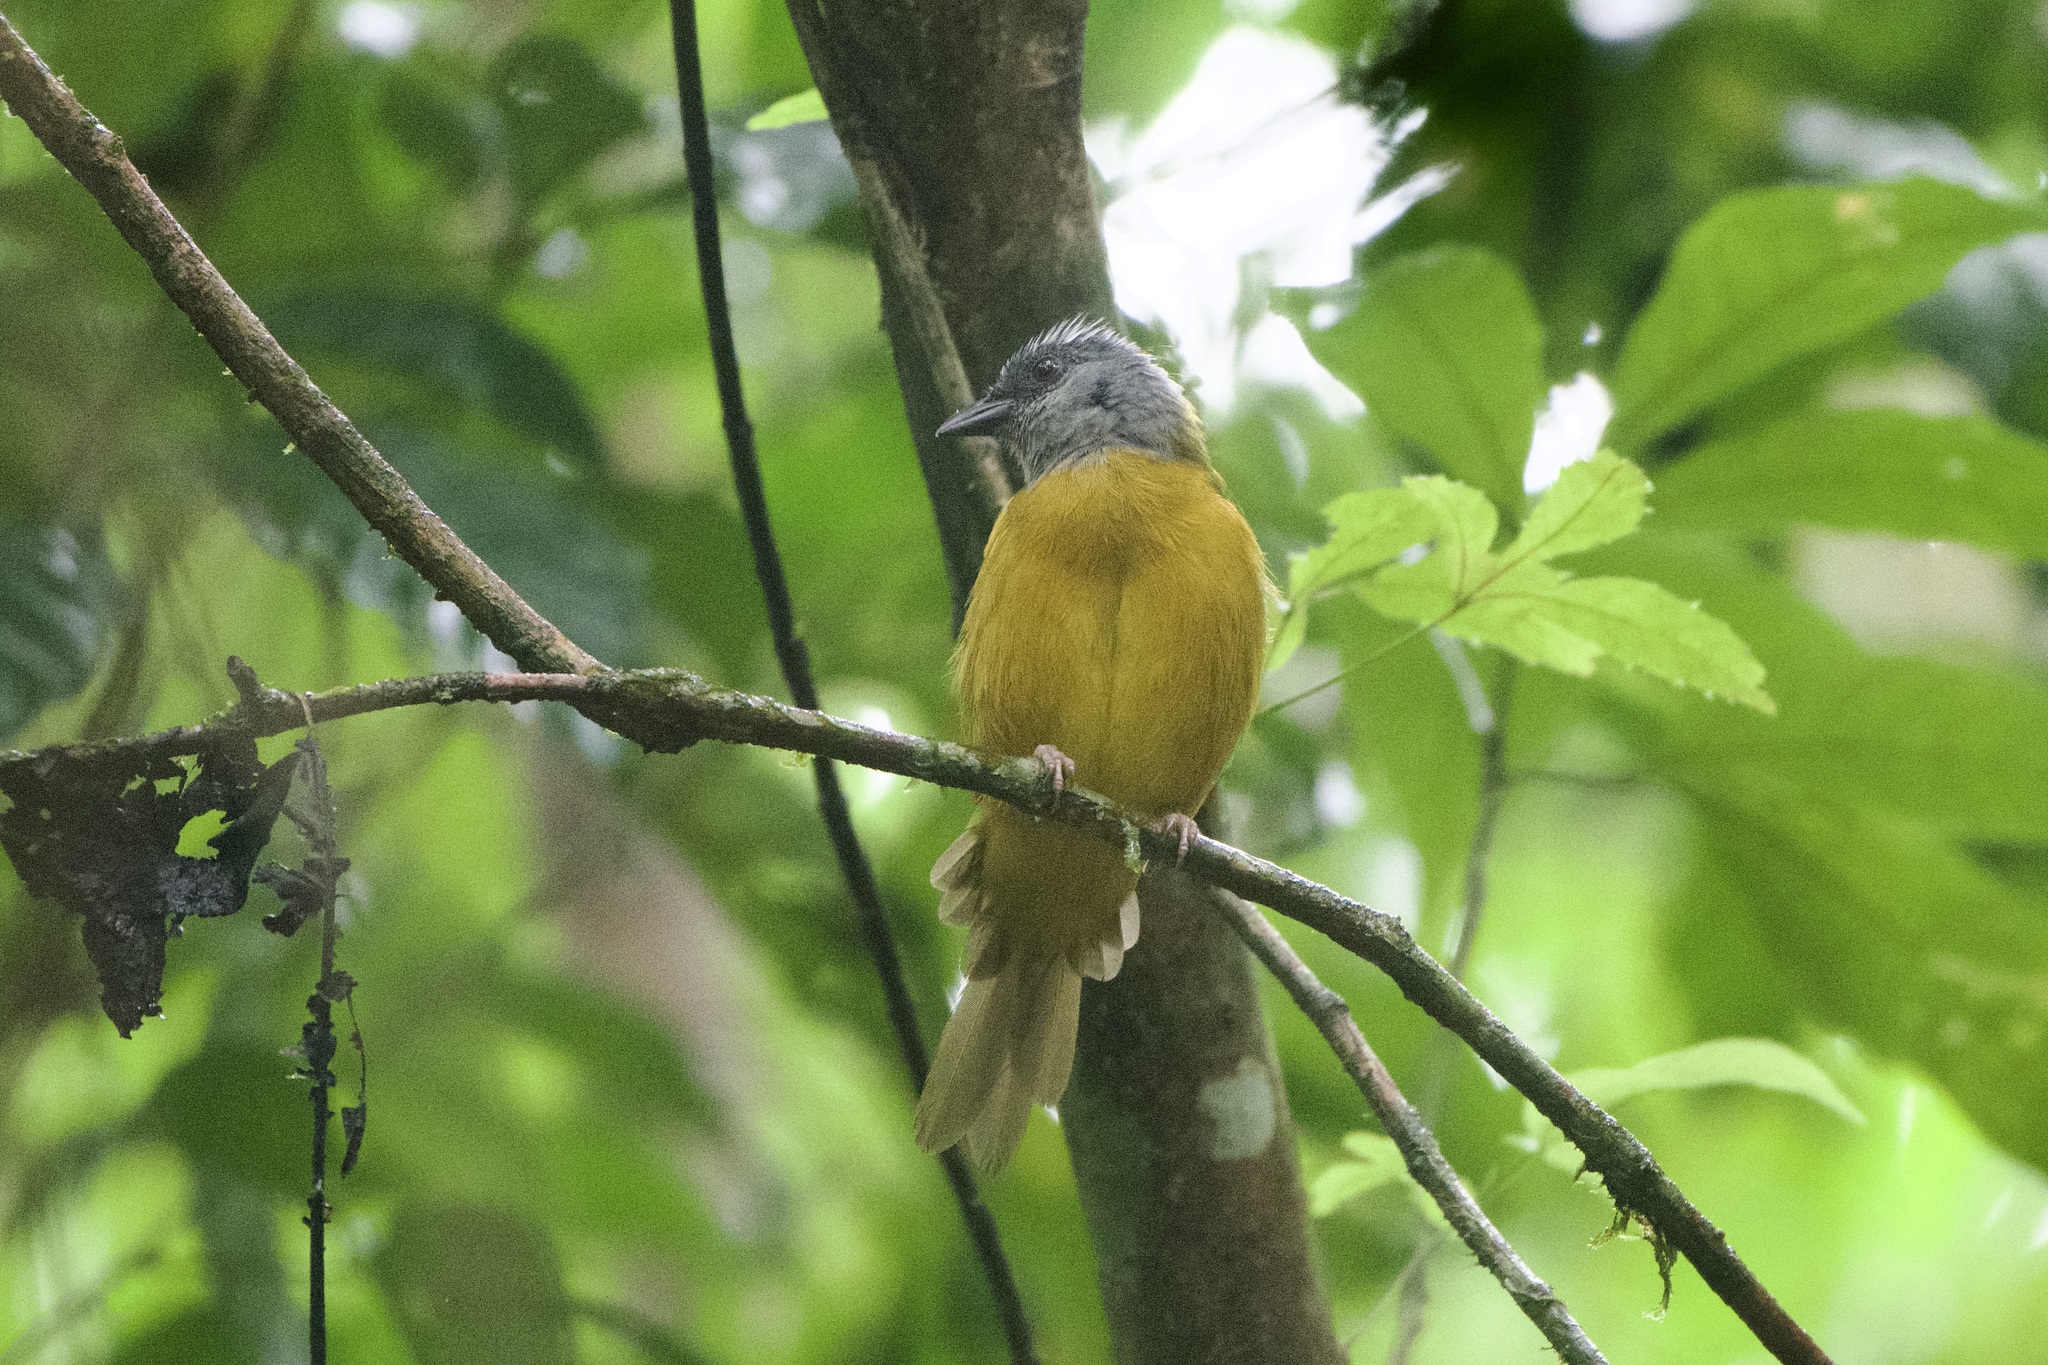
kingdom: Animalia
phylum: Chordata
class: Aves
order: Passeriformes
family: Thraupidae
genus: Eucometis
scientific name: Eucometis penicillata
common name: Grey-headed tanager
